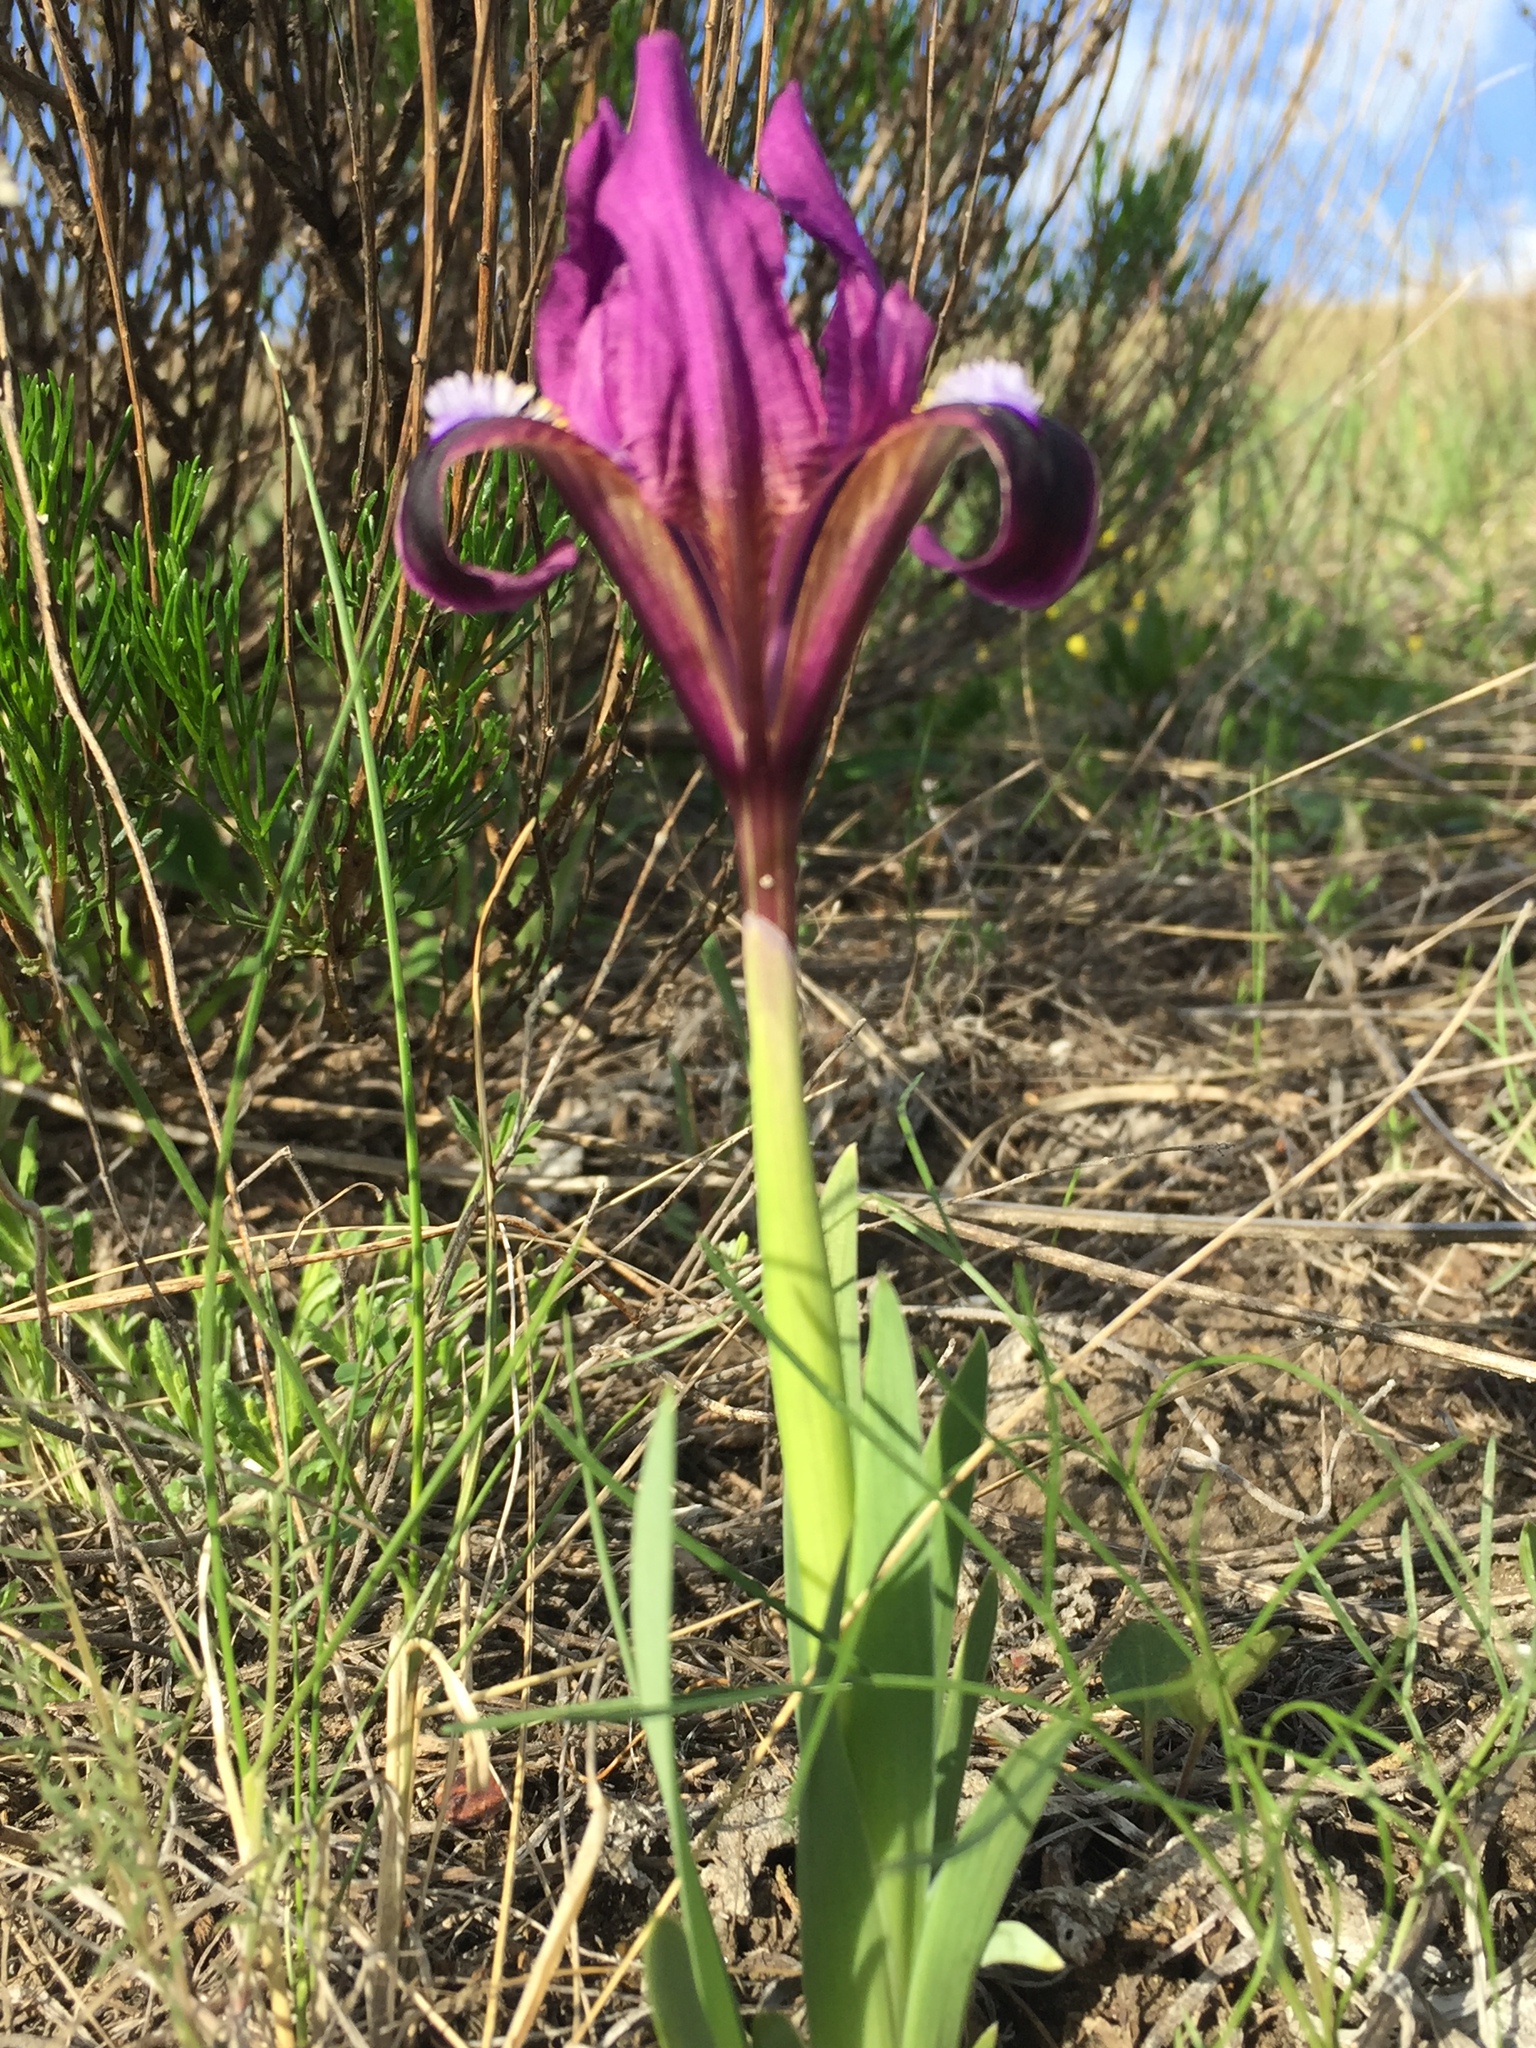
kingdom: Plantae
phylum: Tracheophyta
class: Liliopsida
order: Asparagales
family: Iridaceae
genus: Iris
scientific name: Iris pumila
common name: Dwarf iris
